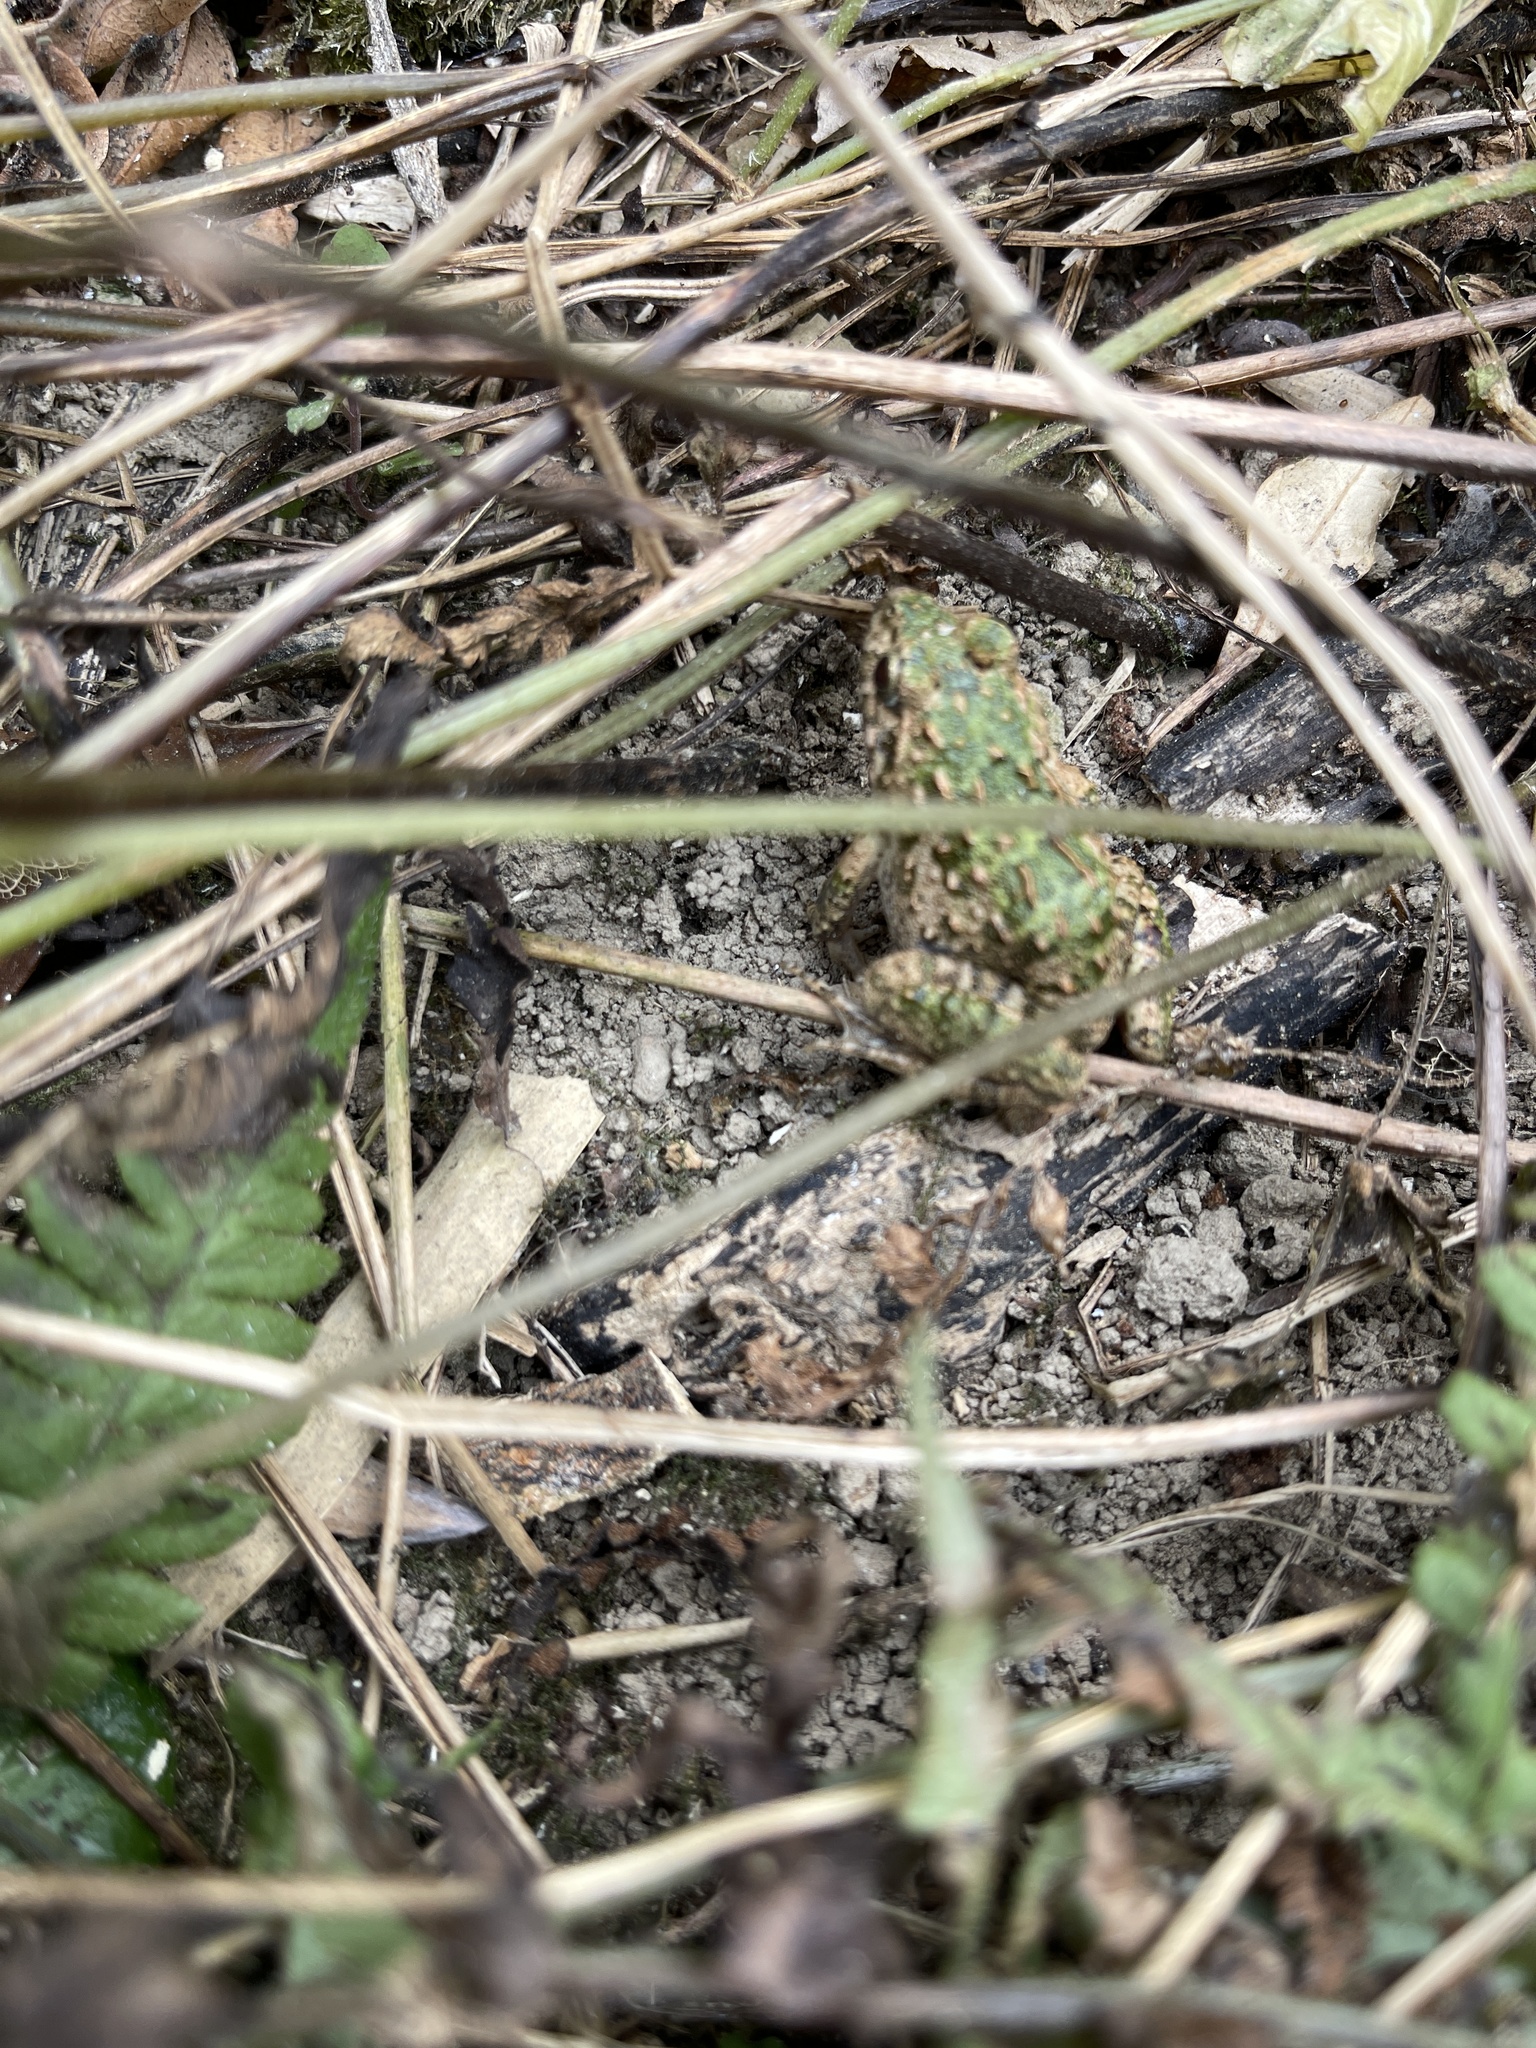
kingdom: Animalia
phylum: Chordata
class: Amphibia
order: Anura
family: Dicroglossidae
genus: Fejervarya
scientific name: Fejervarya limnocharis
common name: Asian grass frog/common pond frog/field frog/grass frog/indian rice frog
